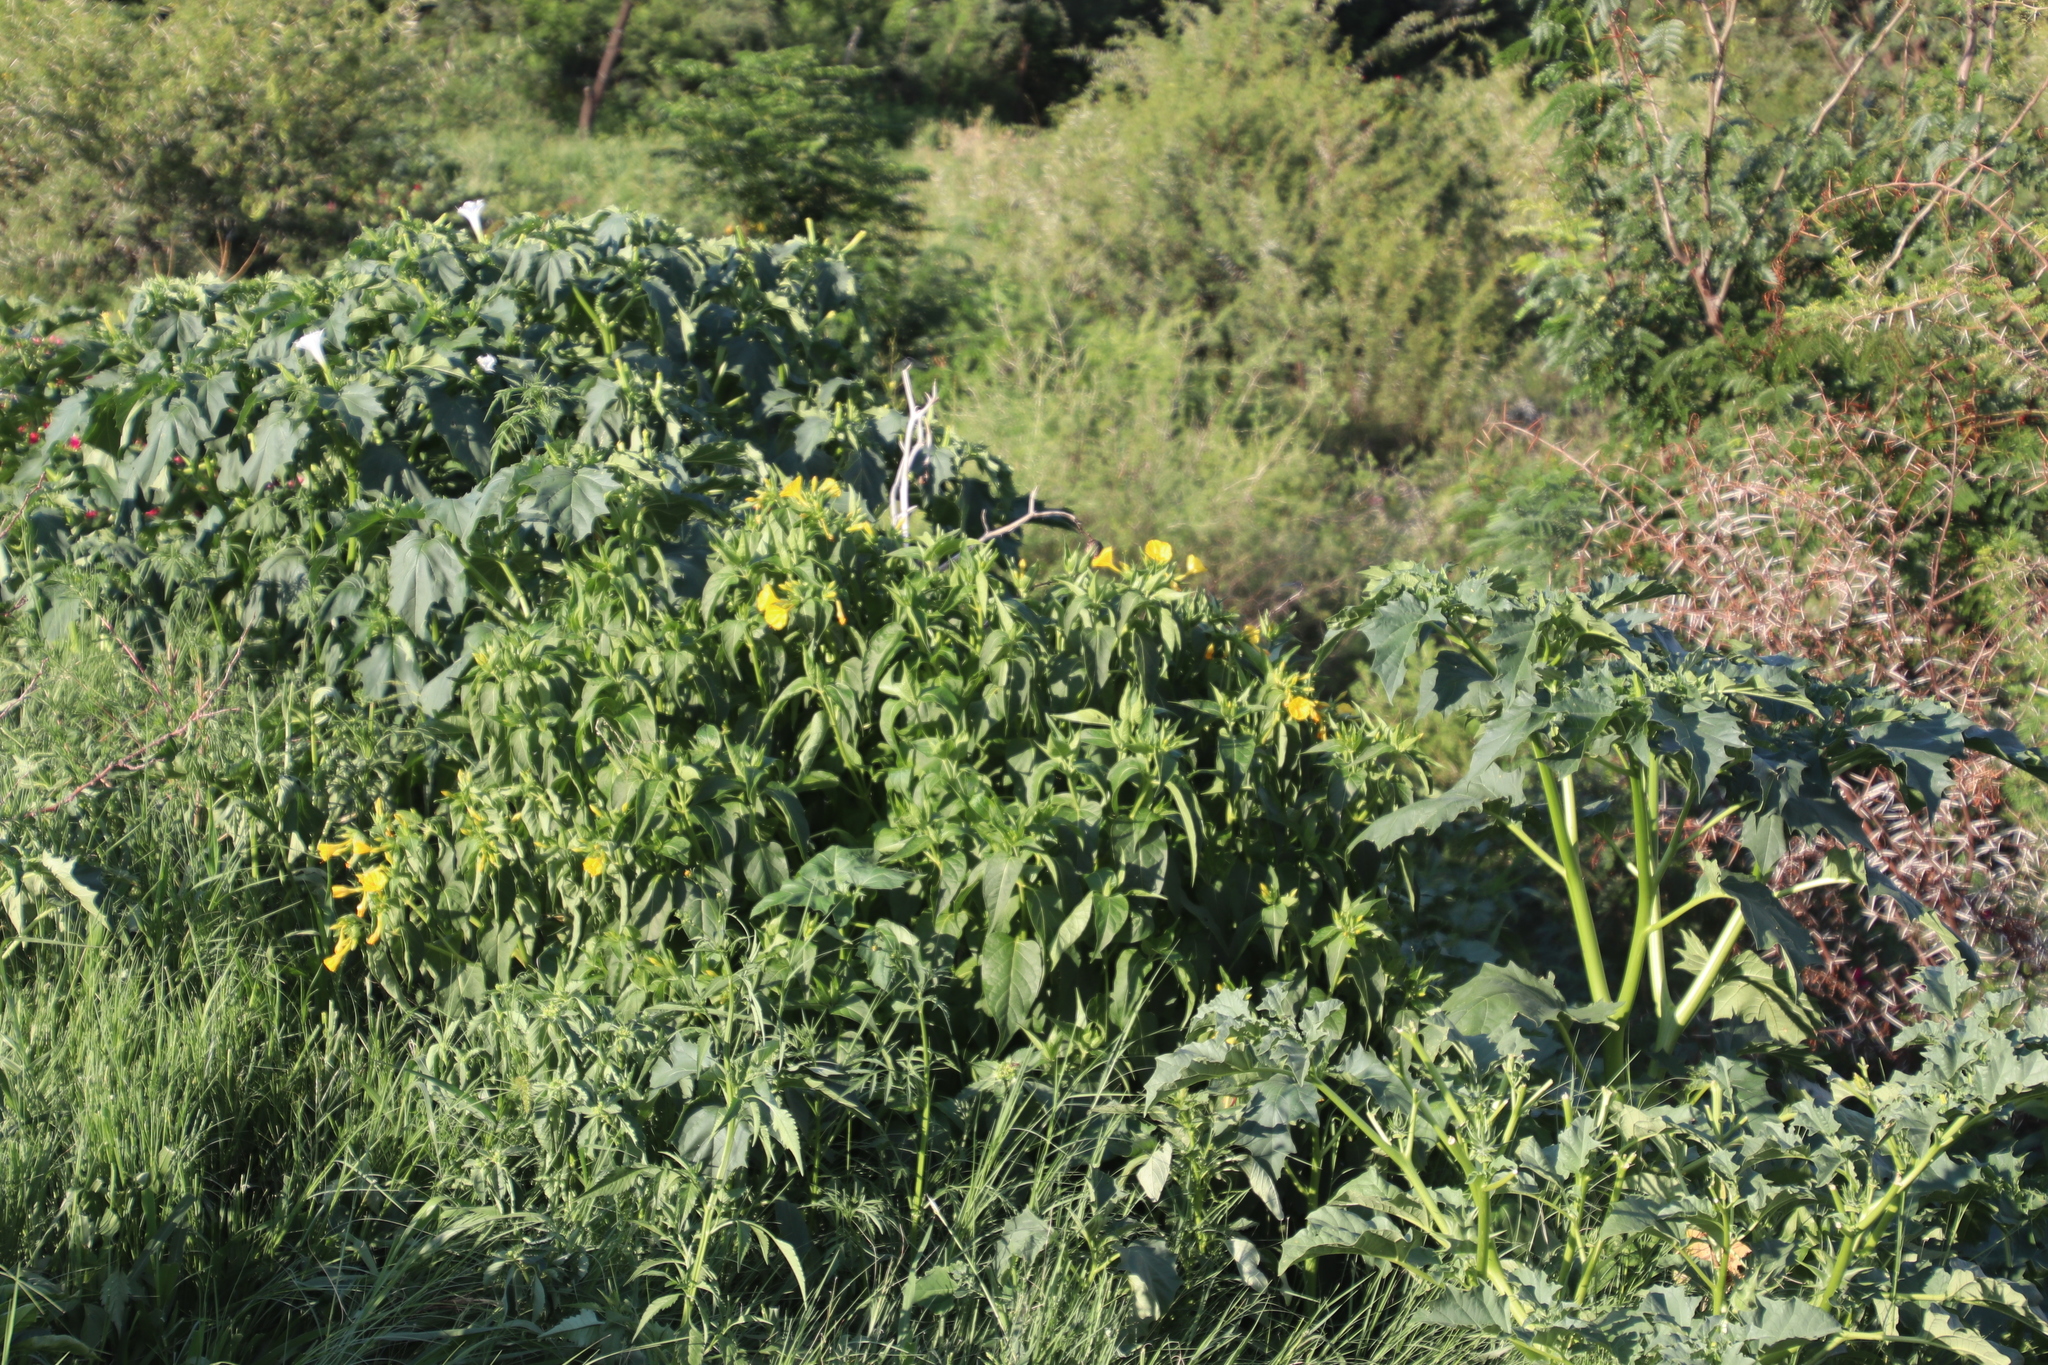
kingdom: Plantae
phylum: Tracheophyta
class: Magnoliopsida
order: Caryophyllales
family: Nyctaginaceae
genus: Mirabilis
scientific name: Mirabilis jalapa
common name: Marvel-of-peru
